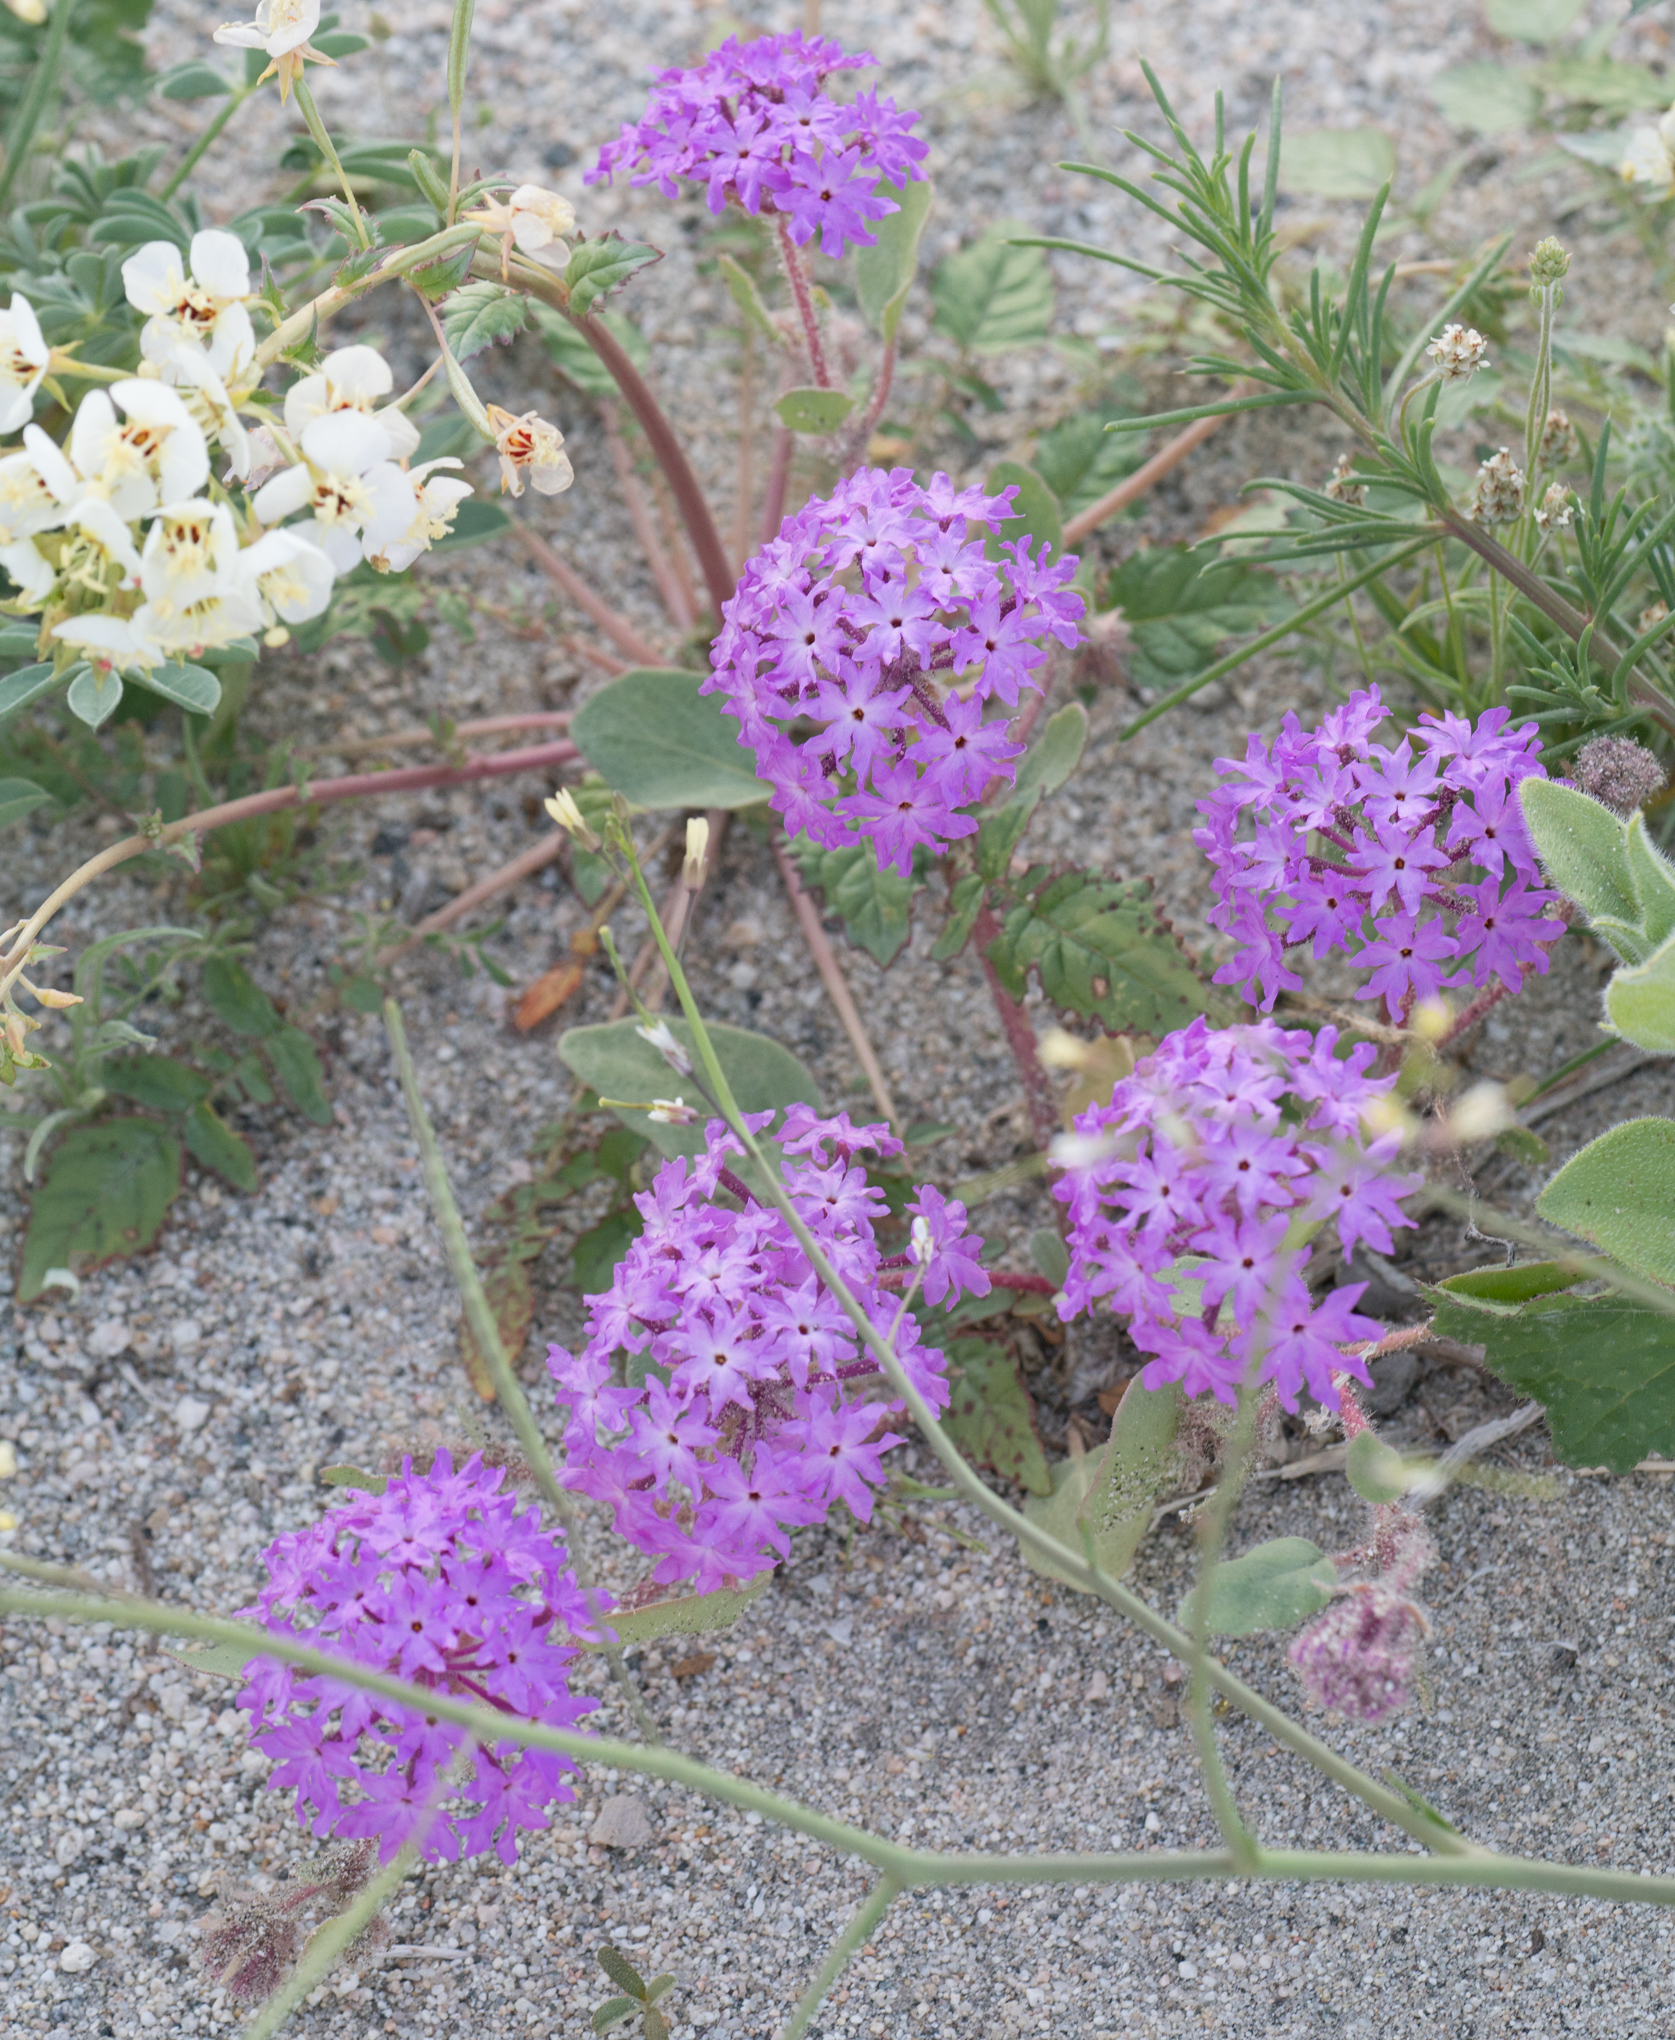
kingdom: Plantae
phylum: Tracheophyta
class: Magnoliopsida
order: Caryophyllales
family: Nyctaginaceae
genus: Abronia
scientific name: Abronia villosa
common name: Desert sand-verbena
